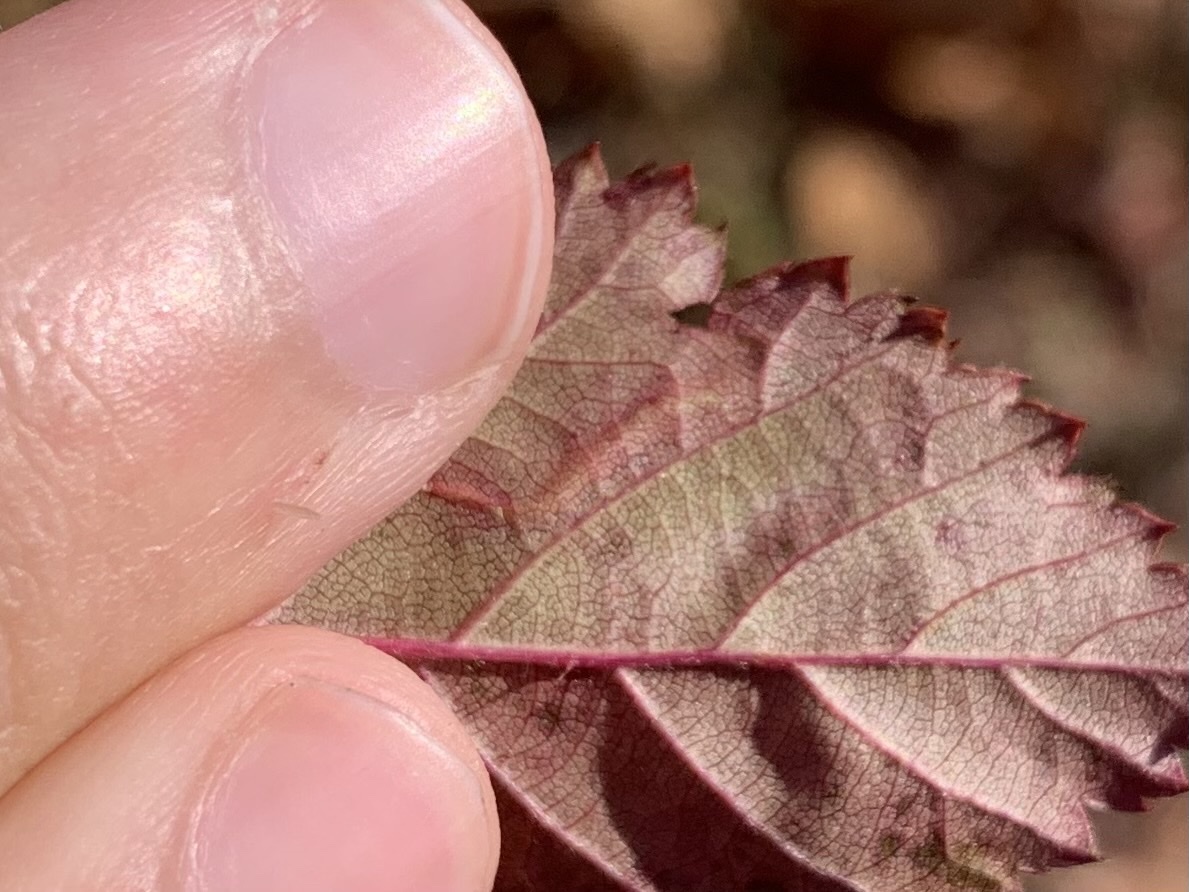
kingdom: Animalia
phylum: Arthropoda
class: Insecta
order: Lepidoptera
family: Tischeriidae
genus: Coptotriche
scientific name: Coptotriche aenea
